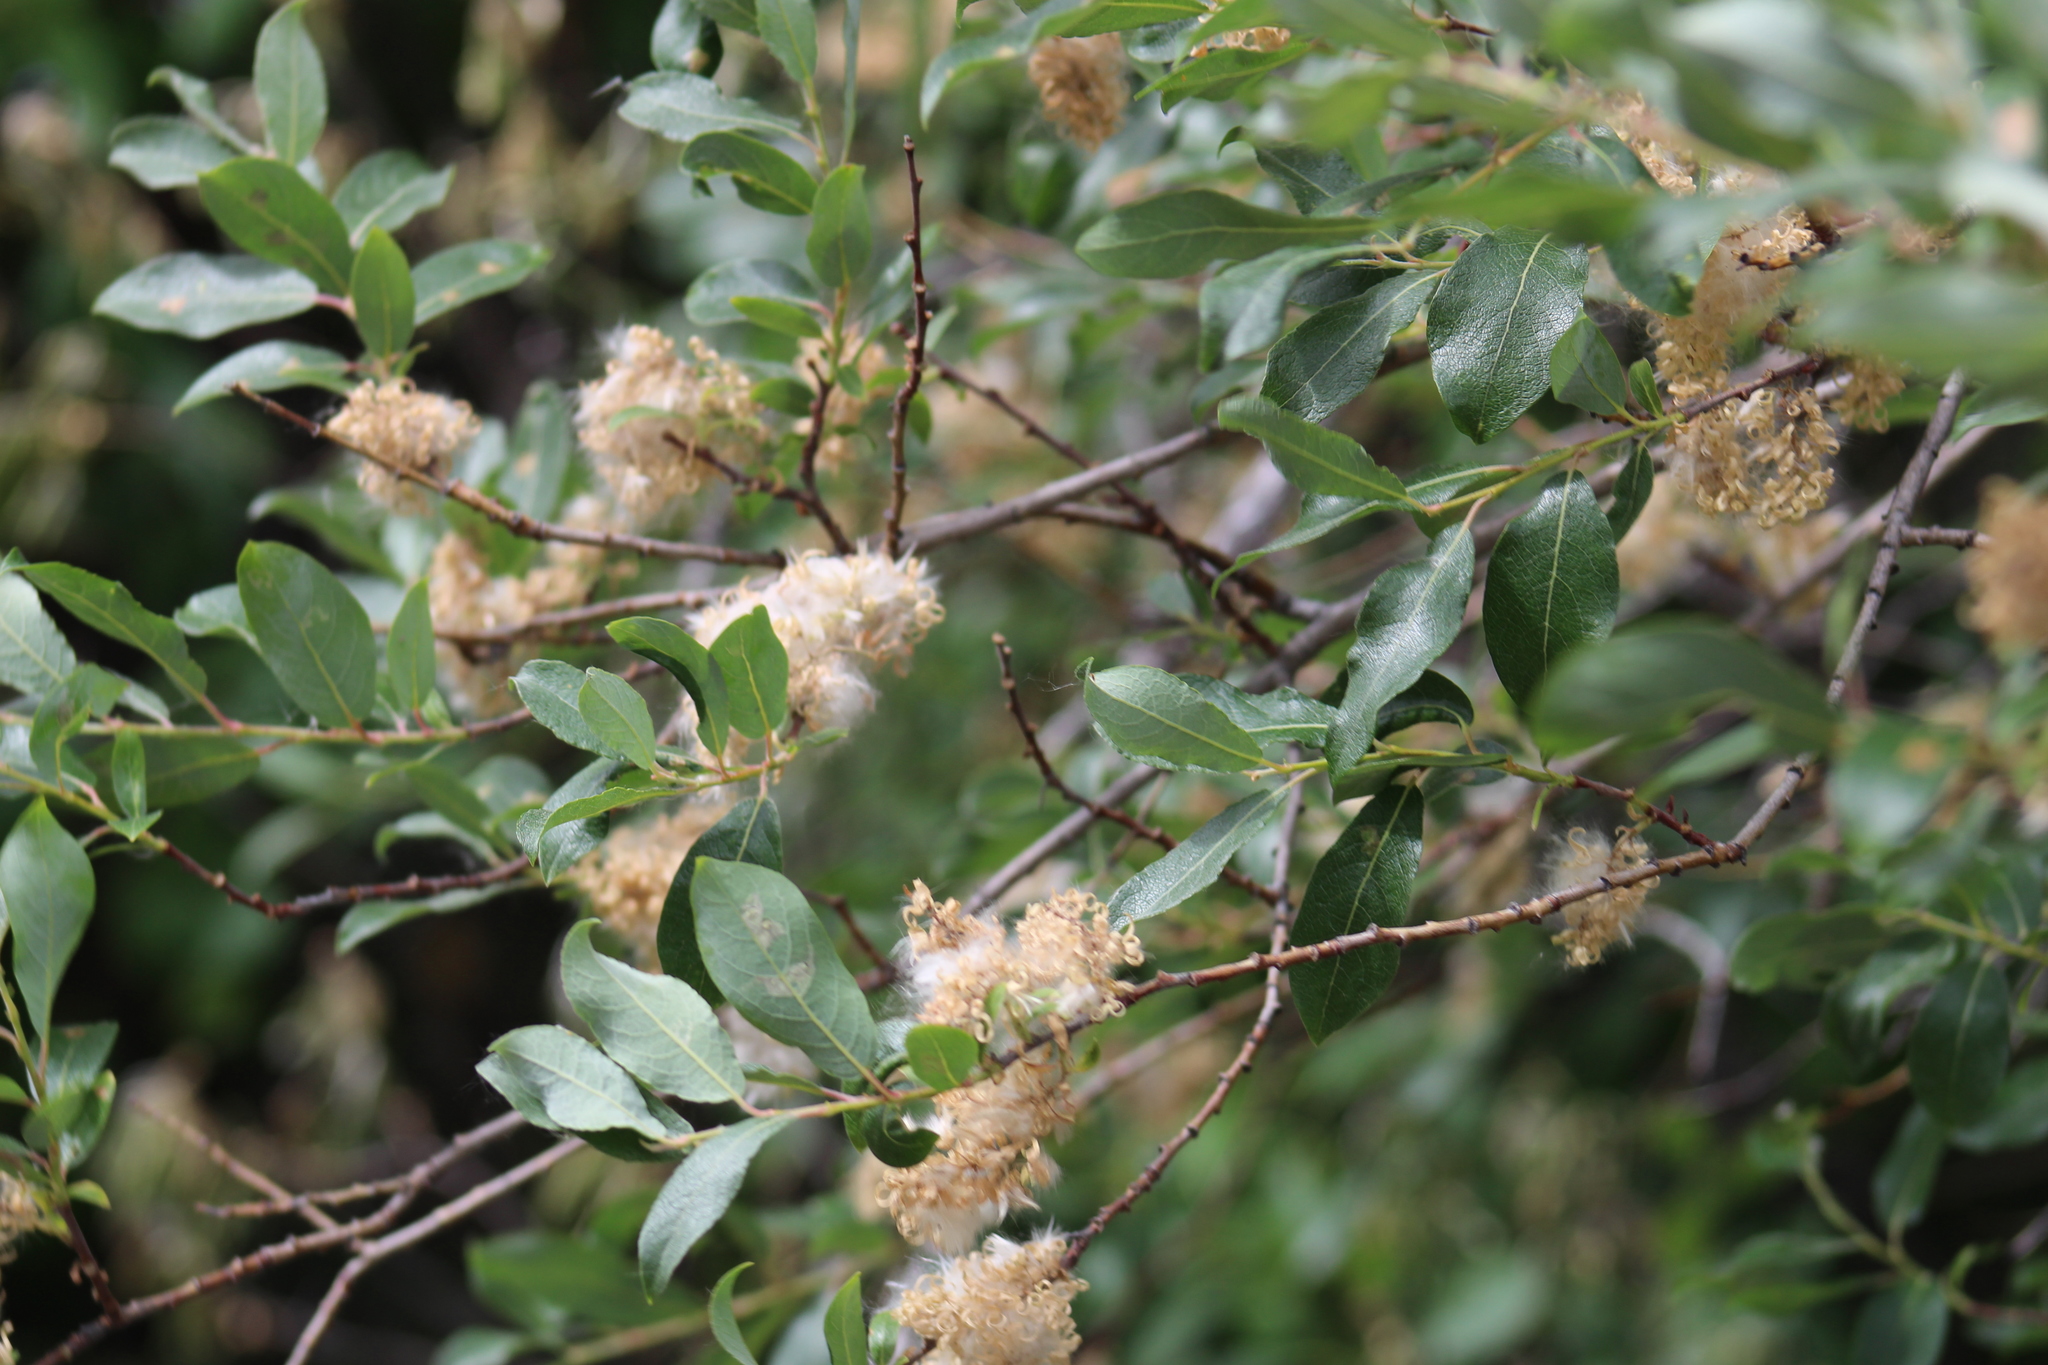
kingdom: Plantae
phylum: Tracheophyta
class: Magnoliopsida
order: Malpighiales
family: Salicaceae
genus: Salix
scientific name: Salix bebbiana
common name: Bebb's willow
